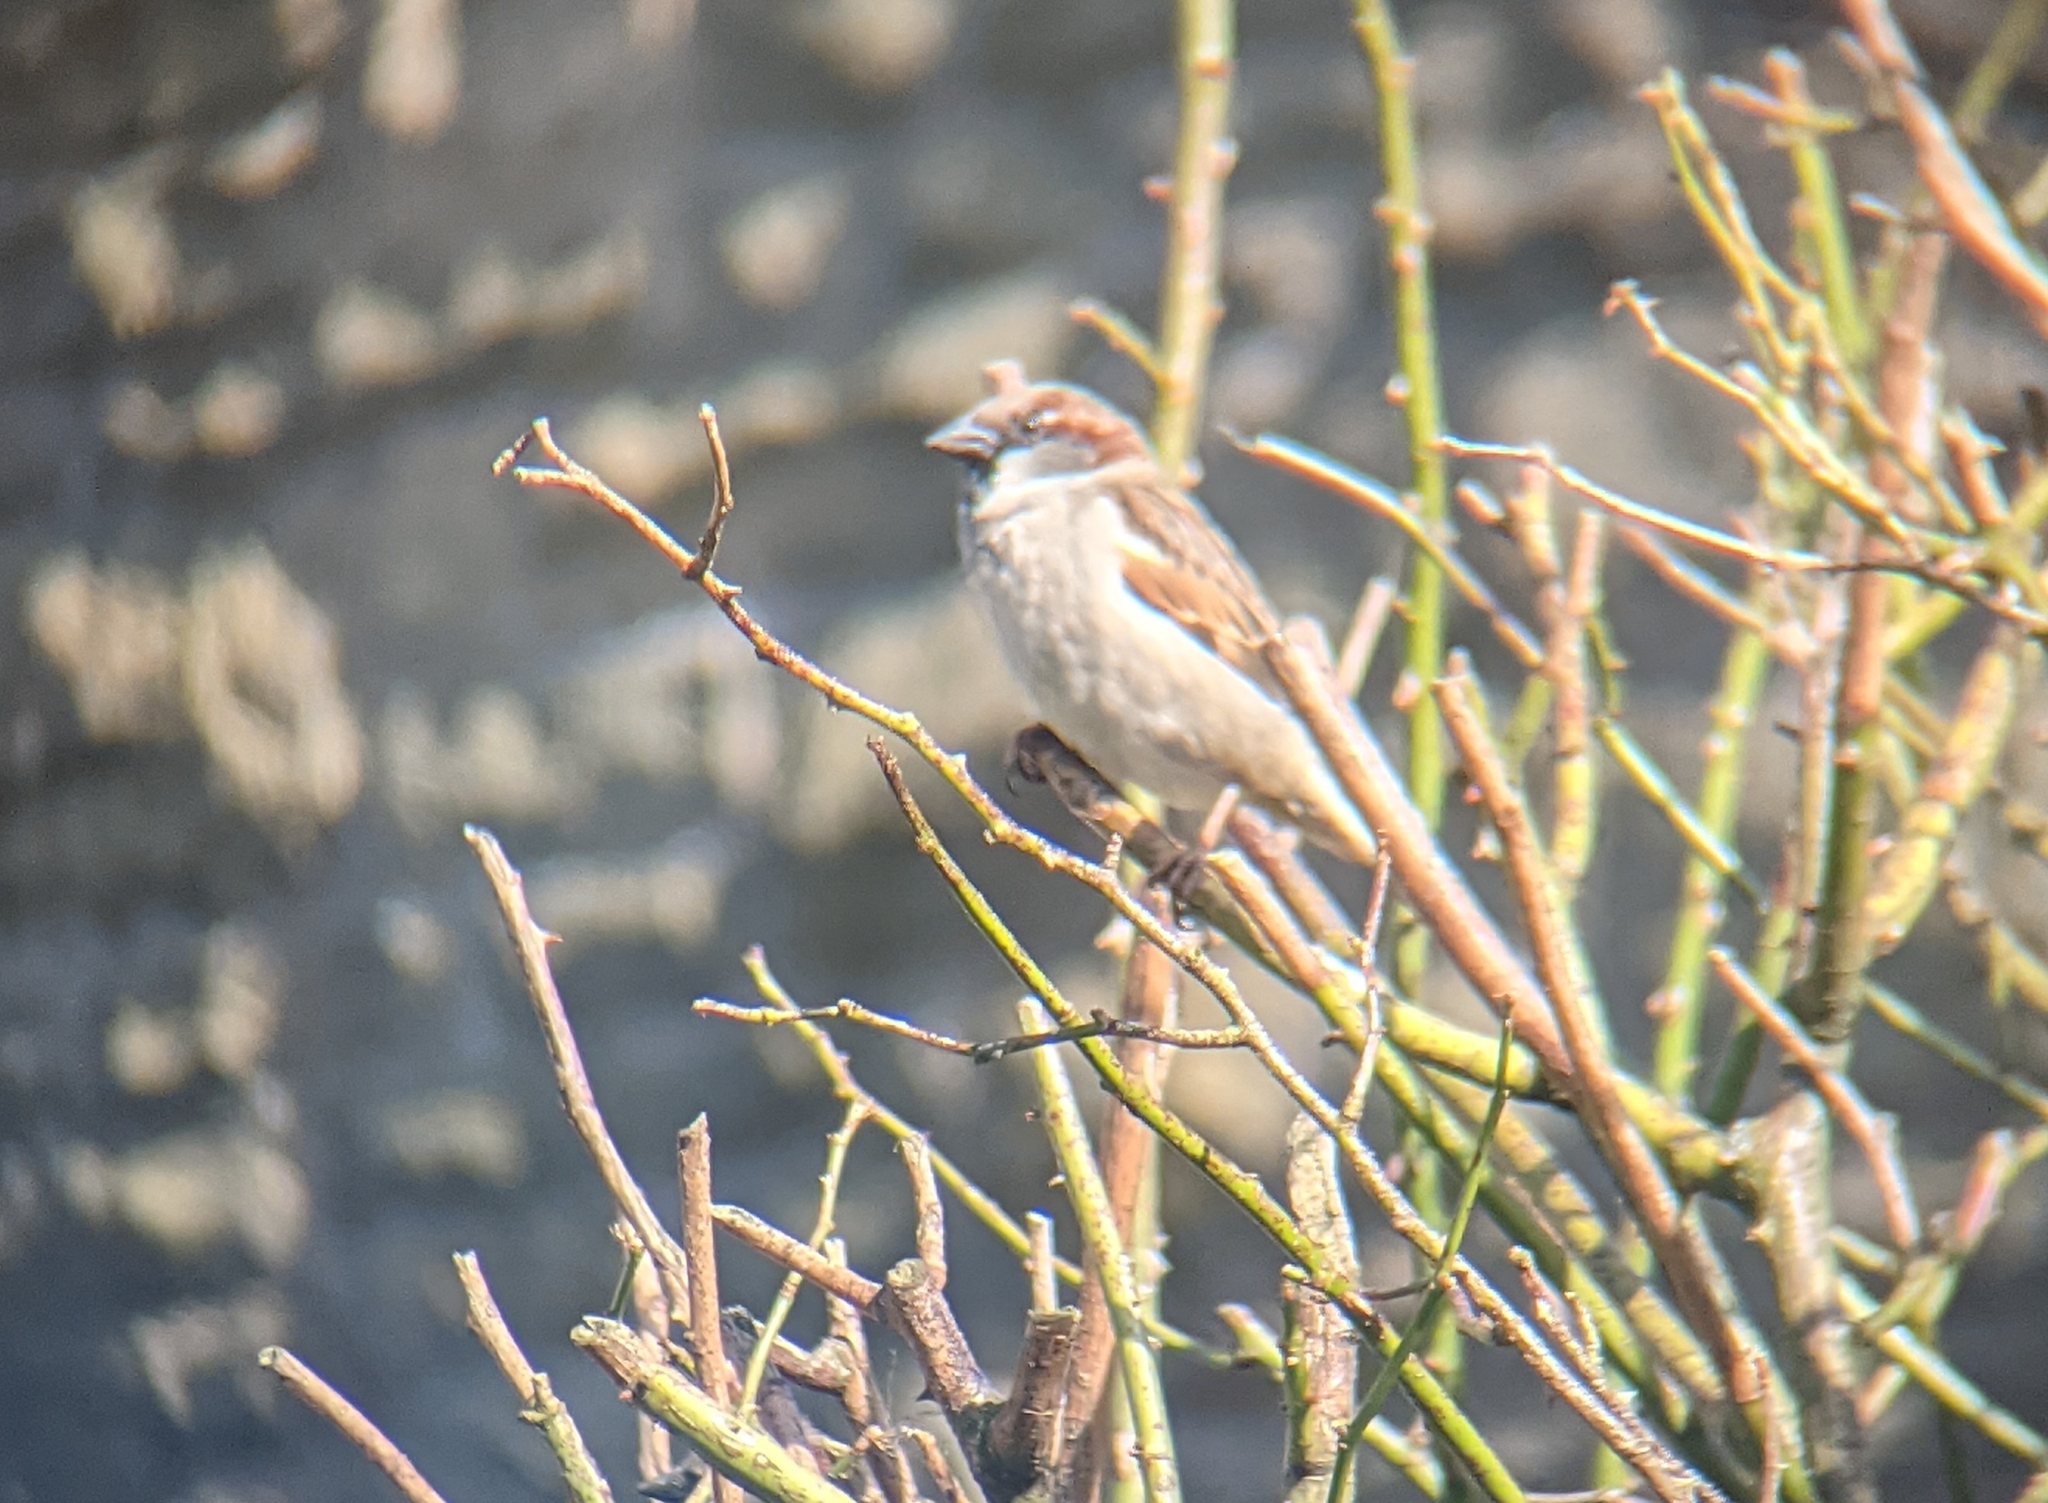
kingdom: Animalia
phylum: Chordata
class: Aves
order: Passeriformes
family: Passeridae
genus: Passer
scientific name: Passer domesticus
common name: House sparrow
